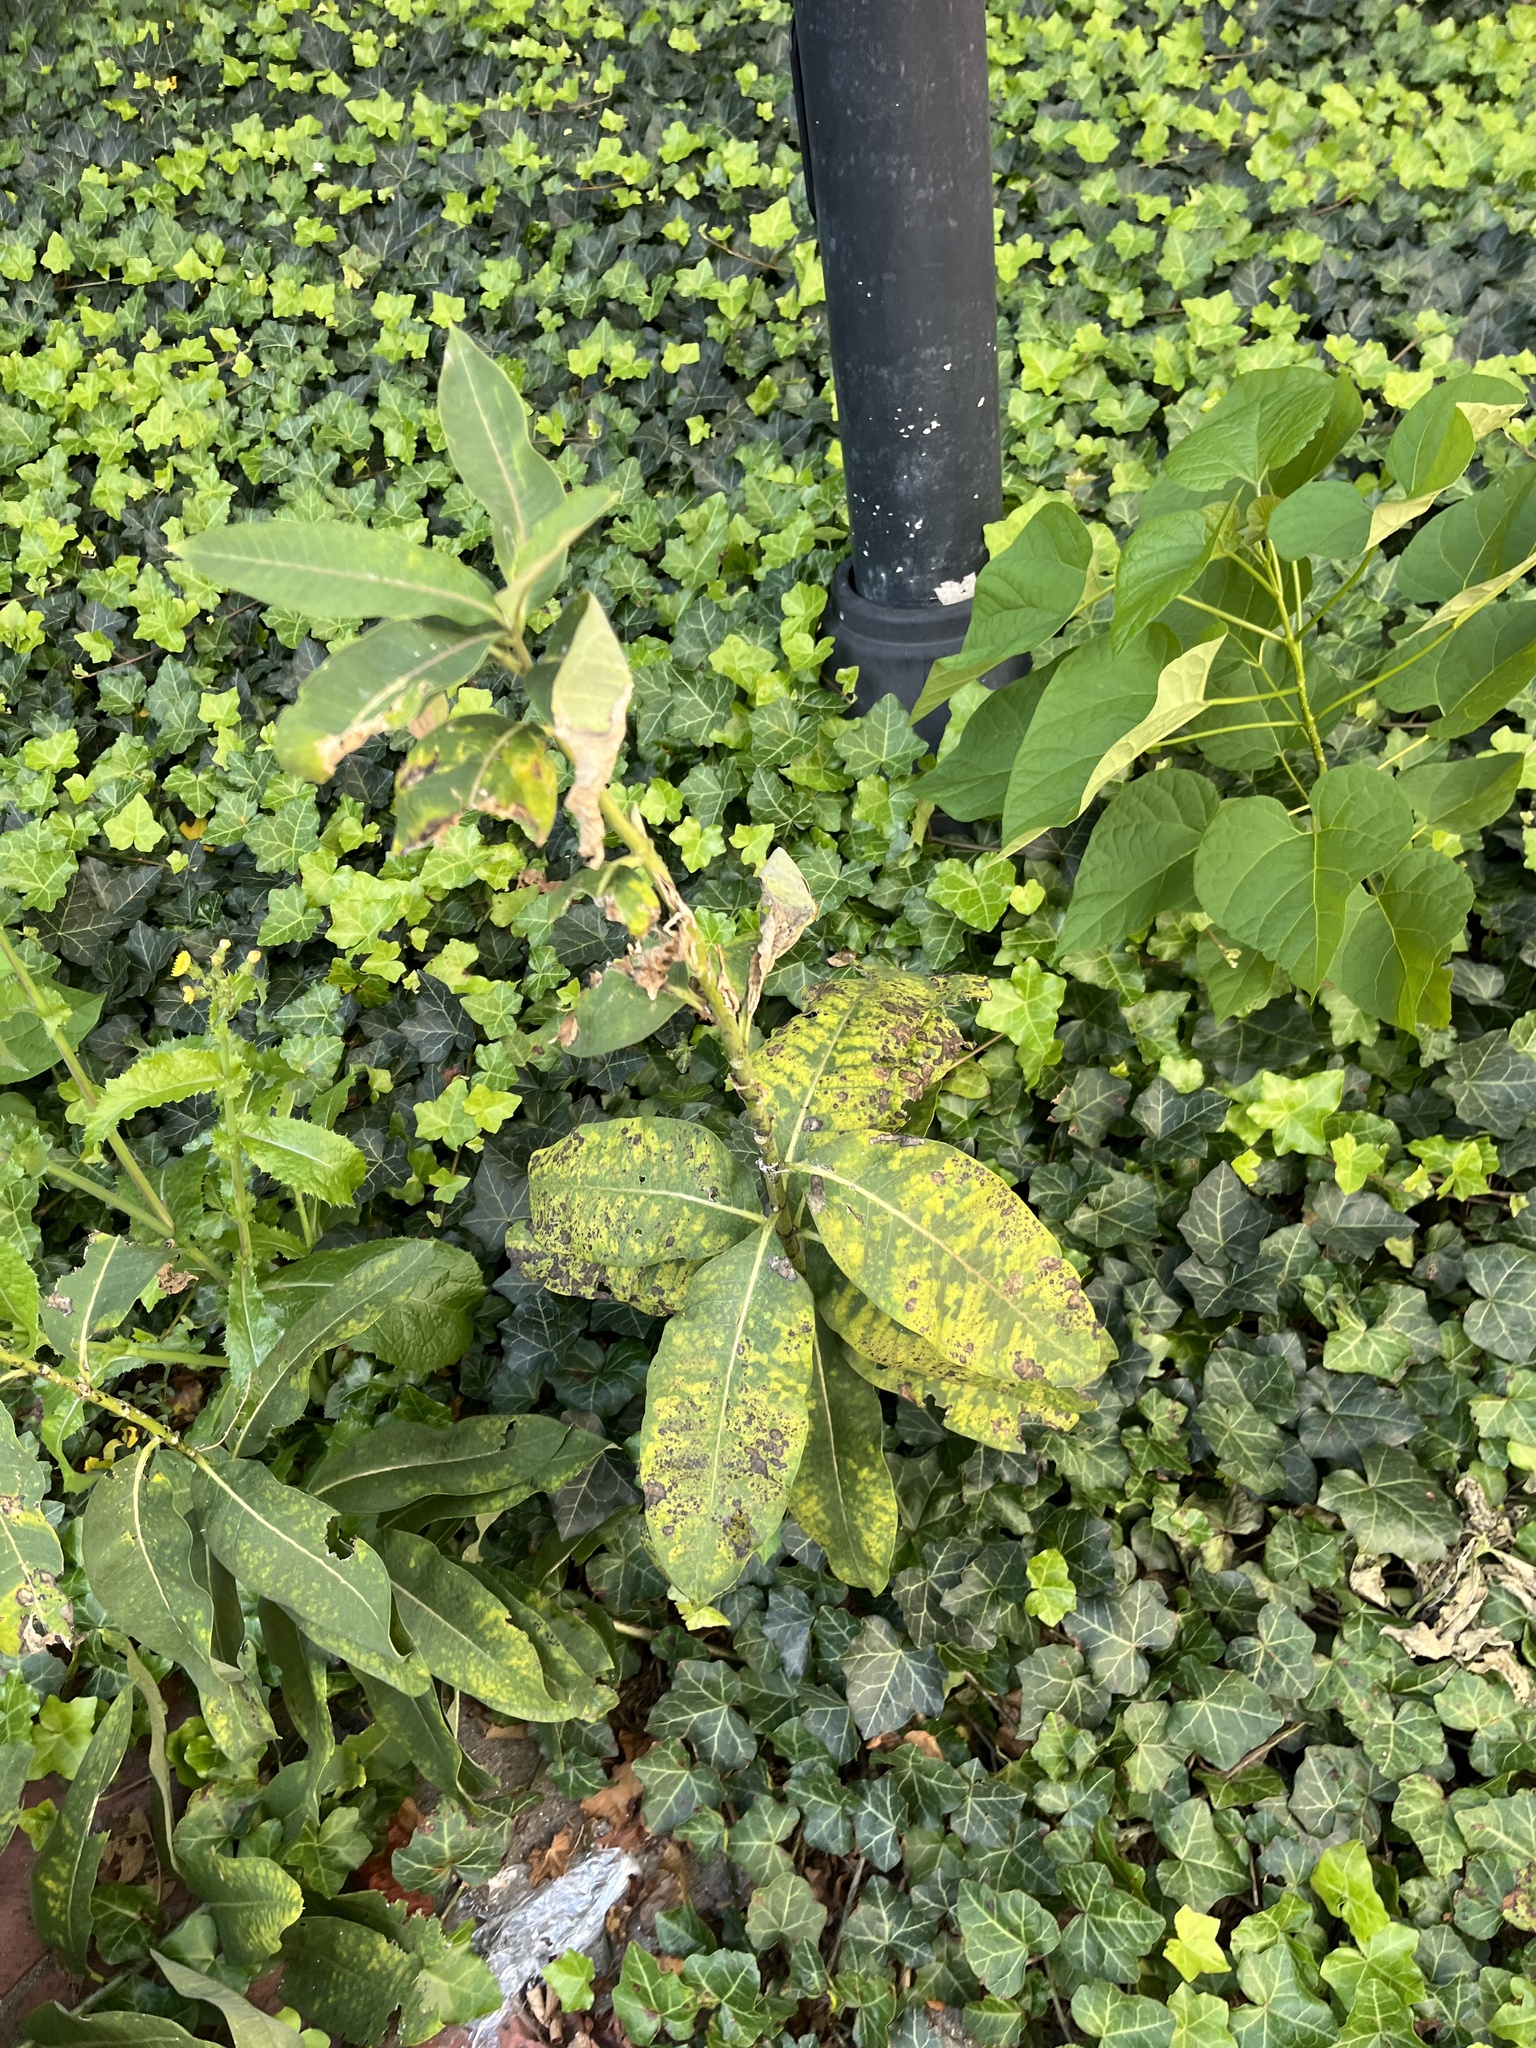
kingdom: Plantae
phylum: Tracheophyta
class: Magnoliopsida
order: Gentianales
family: Apocynaceae
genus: Asclepias
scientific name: Asclepias syriaca
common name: Common milkweed
